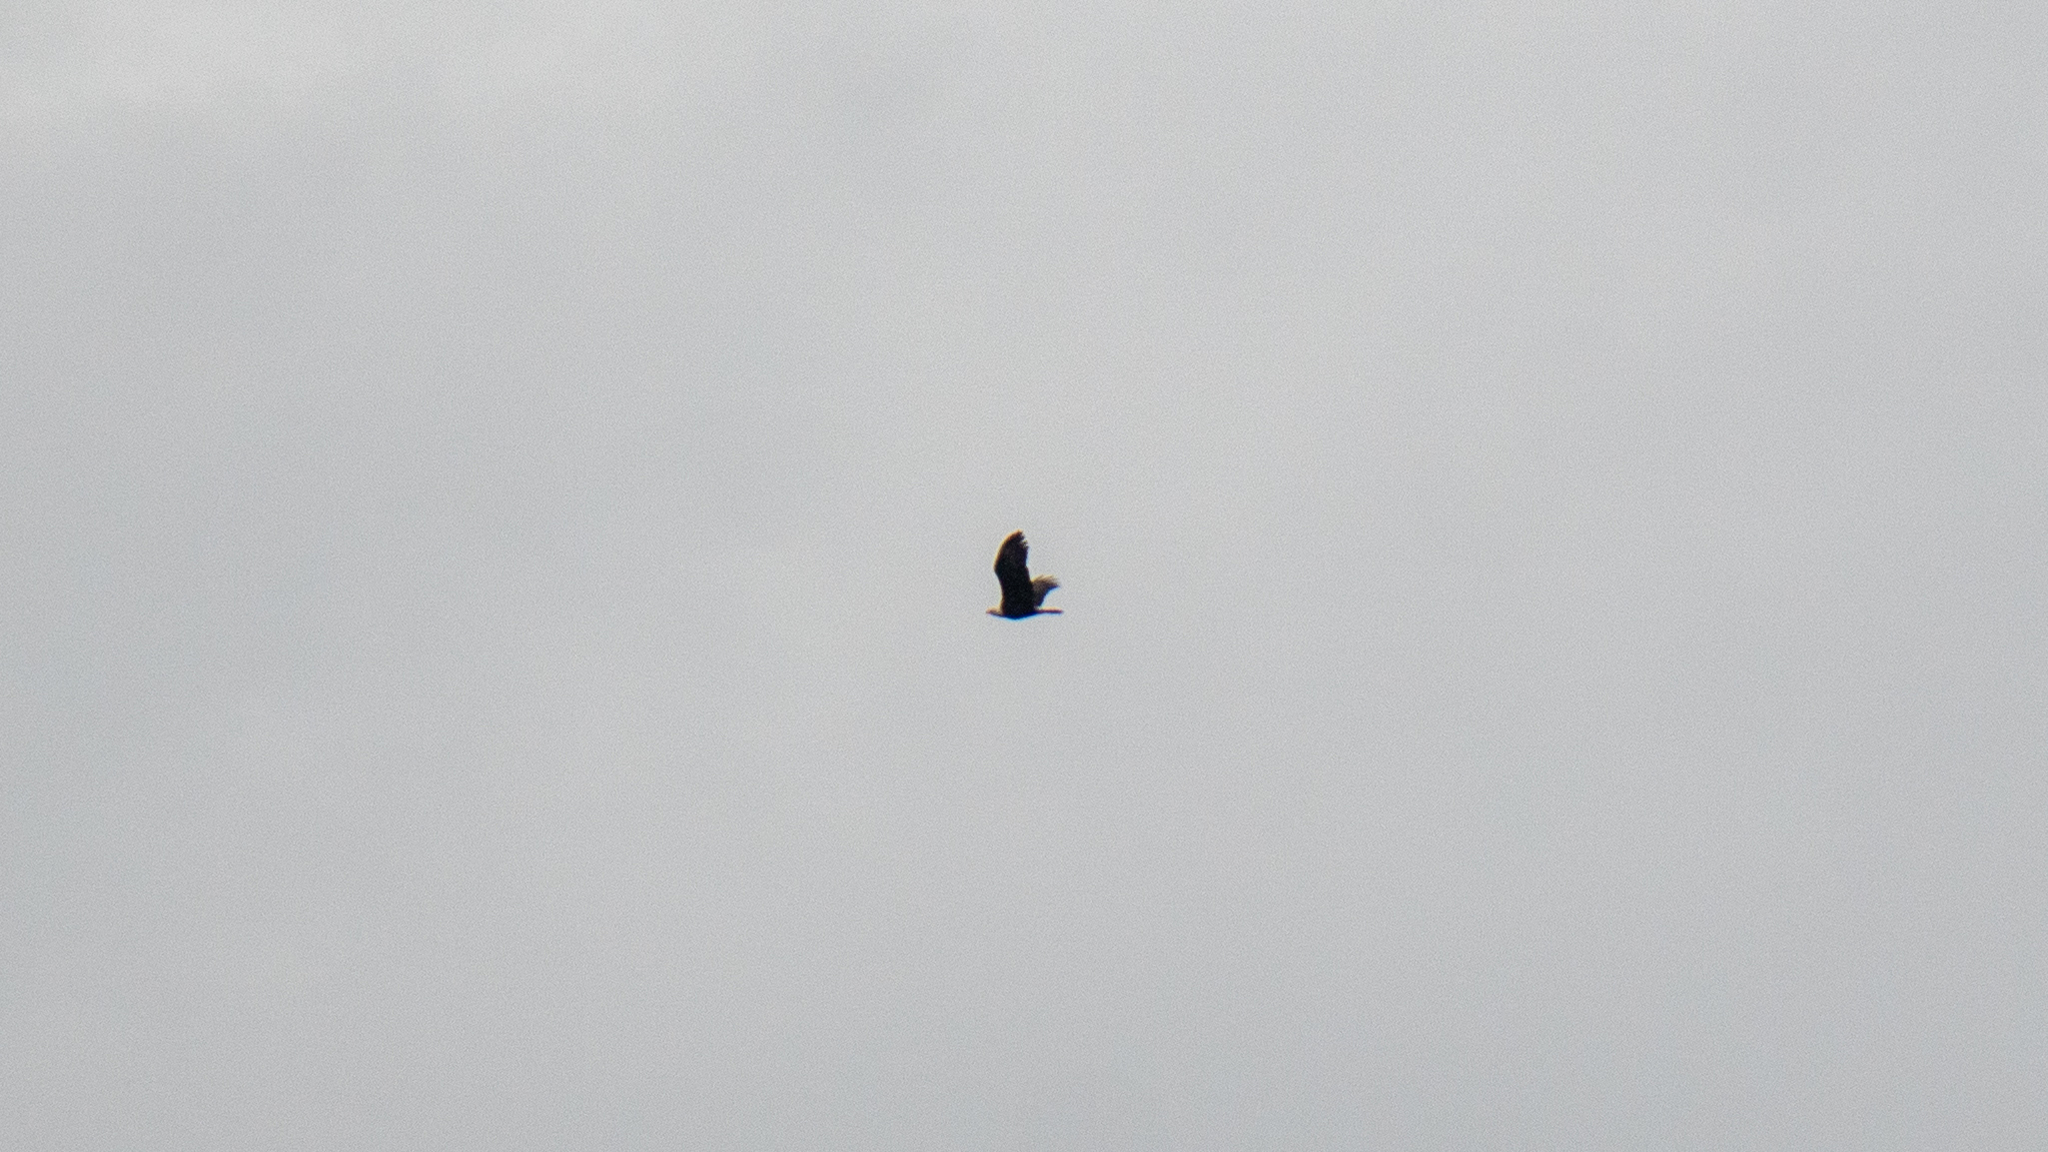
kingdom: Animalia
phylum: Chordata
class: Aves
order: Accipitriformes
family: Accipitridae
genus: Haliaeetus
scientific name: Haliaeetus leucocephalus
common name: Bald eagle
